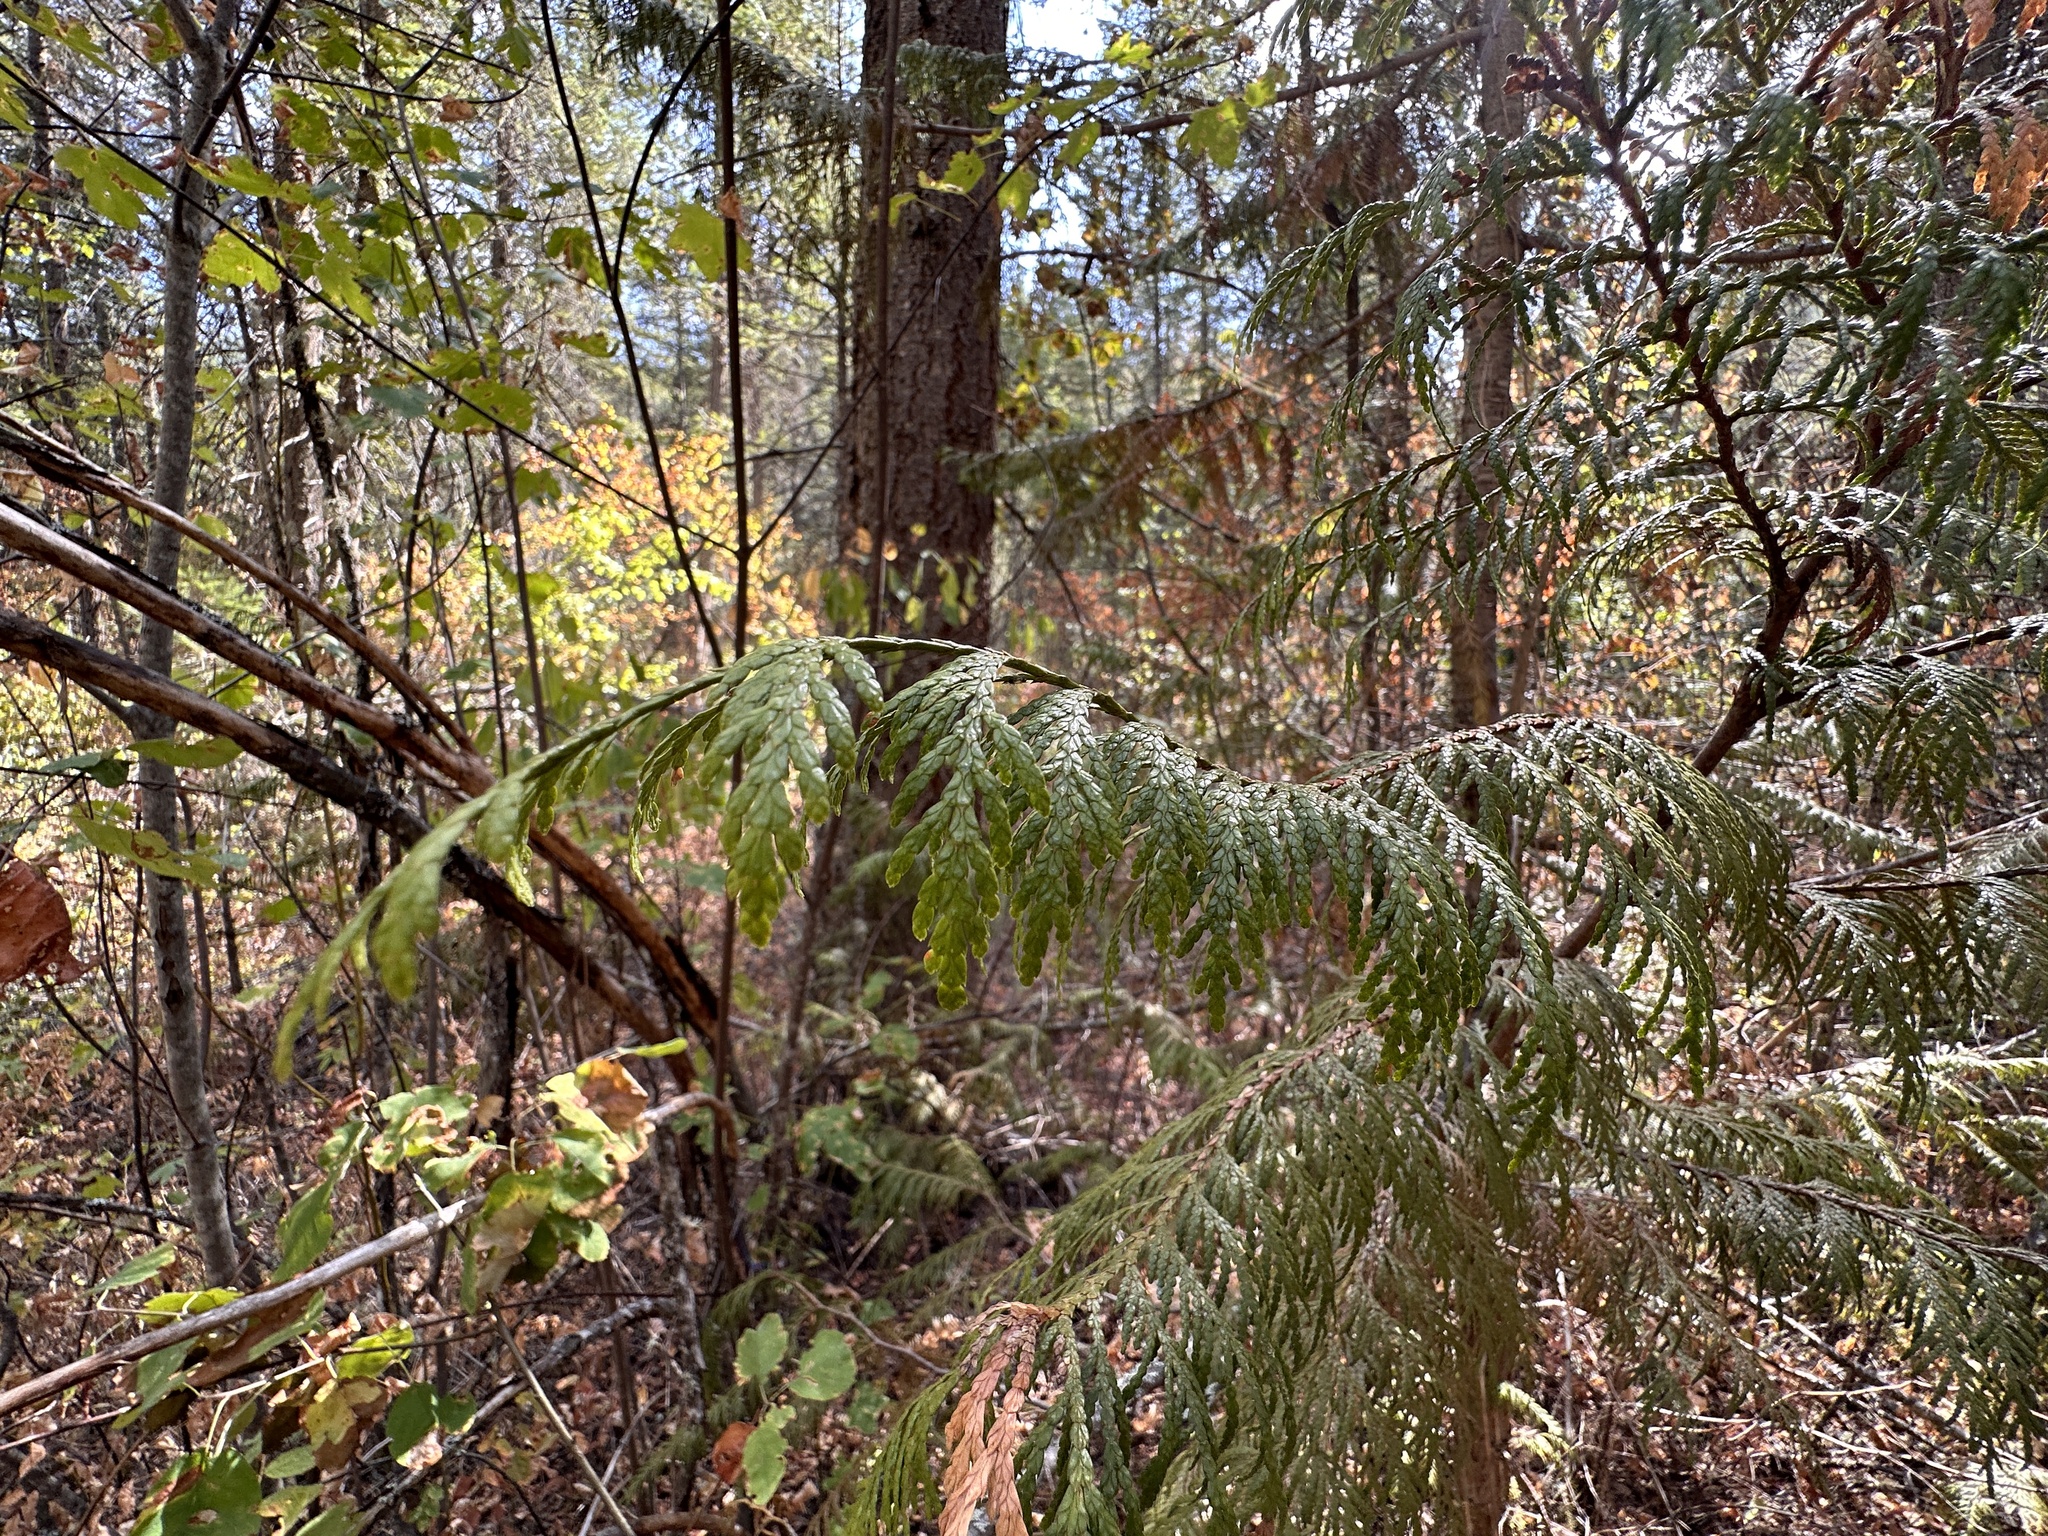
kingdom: Plantae
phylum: Tracheophyta
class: Pinopsida
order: Pinales
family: Cupressaceae
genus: Thuja
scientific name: Thuja plicata
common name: Western red-cedar
